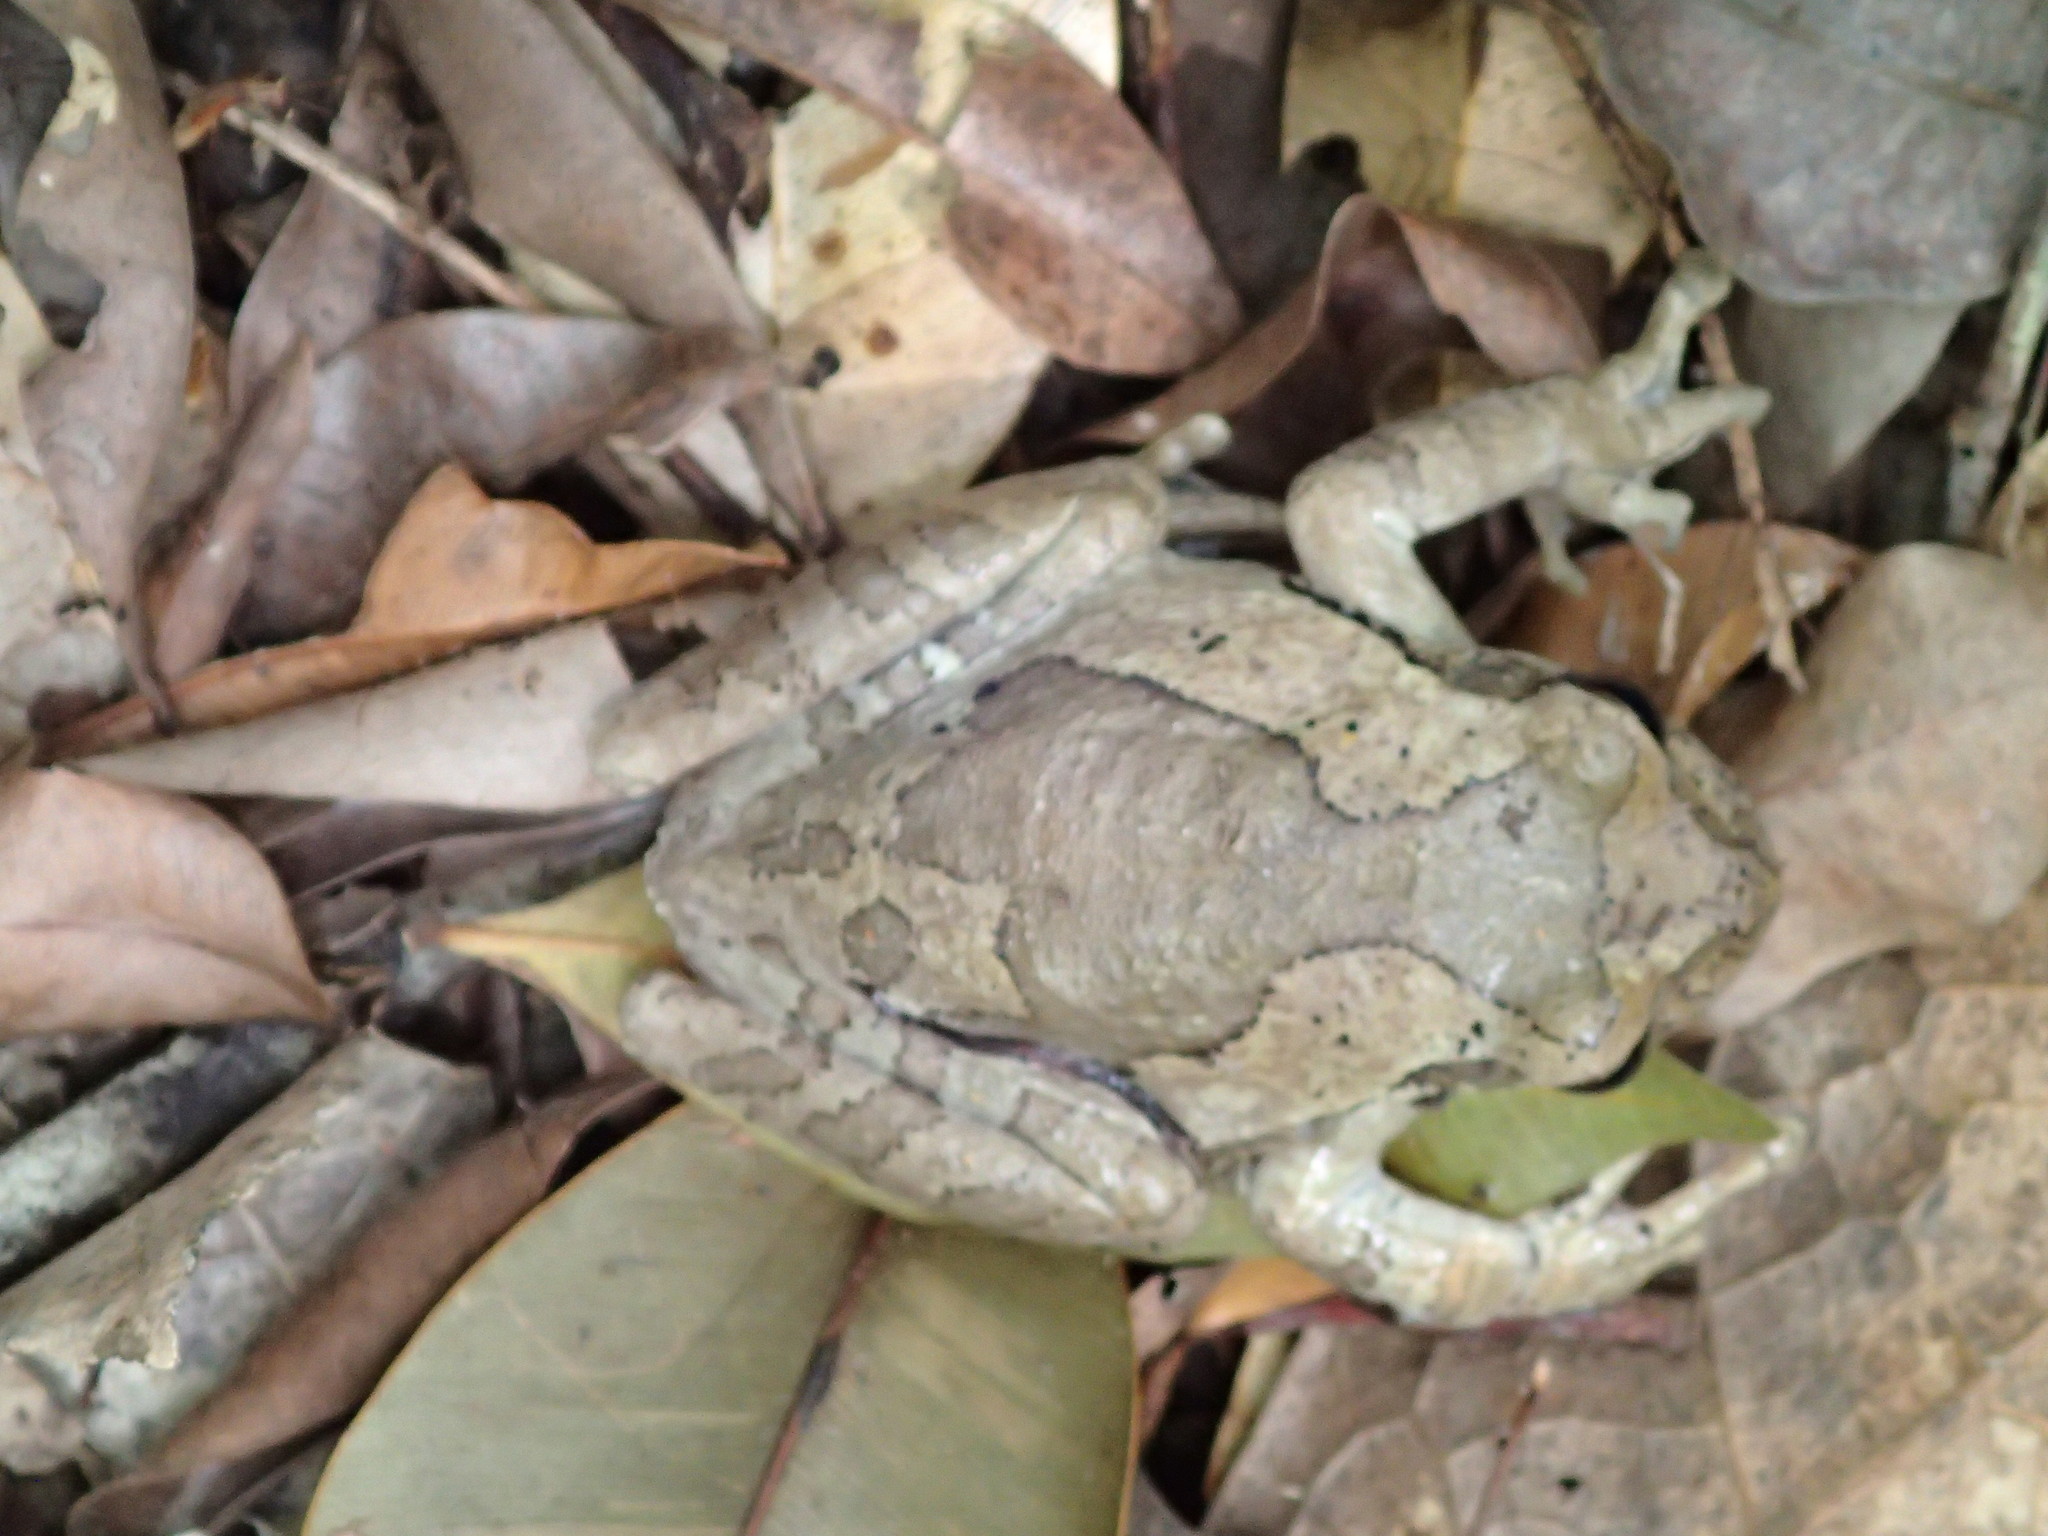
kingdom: Animalia
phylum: Chordata
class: Amphibia
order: Anura
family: Hylidae
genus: Trachycephalus
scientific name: Trachycephalus vermiculatus
